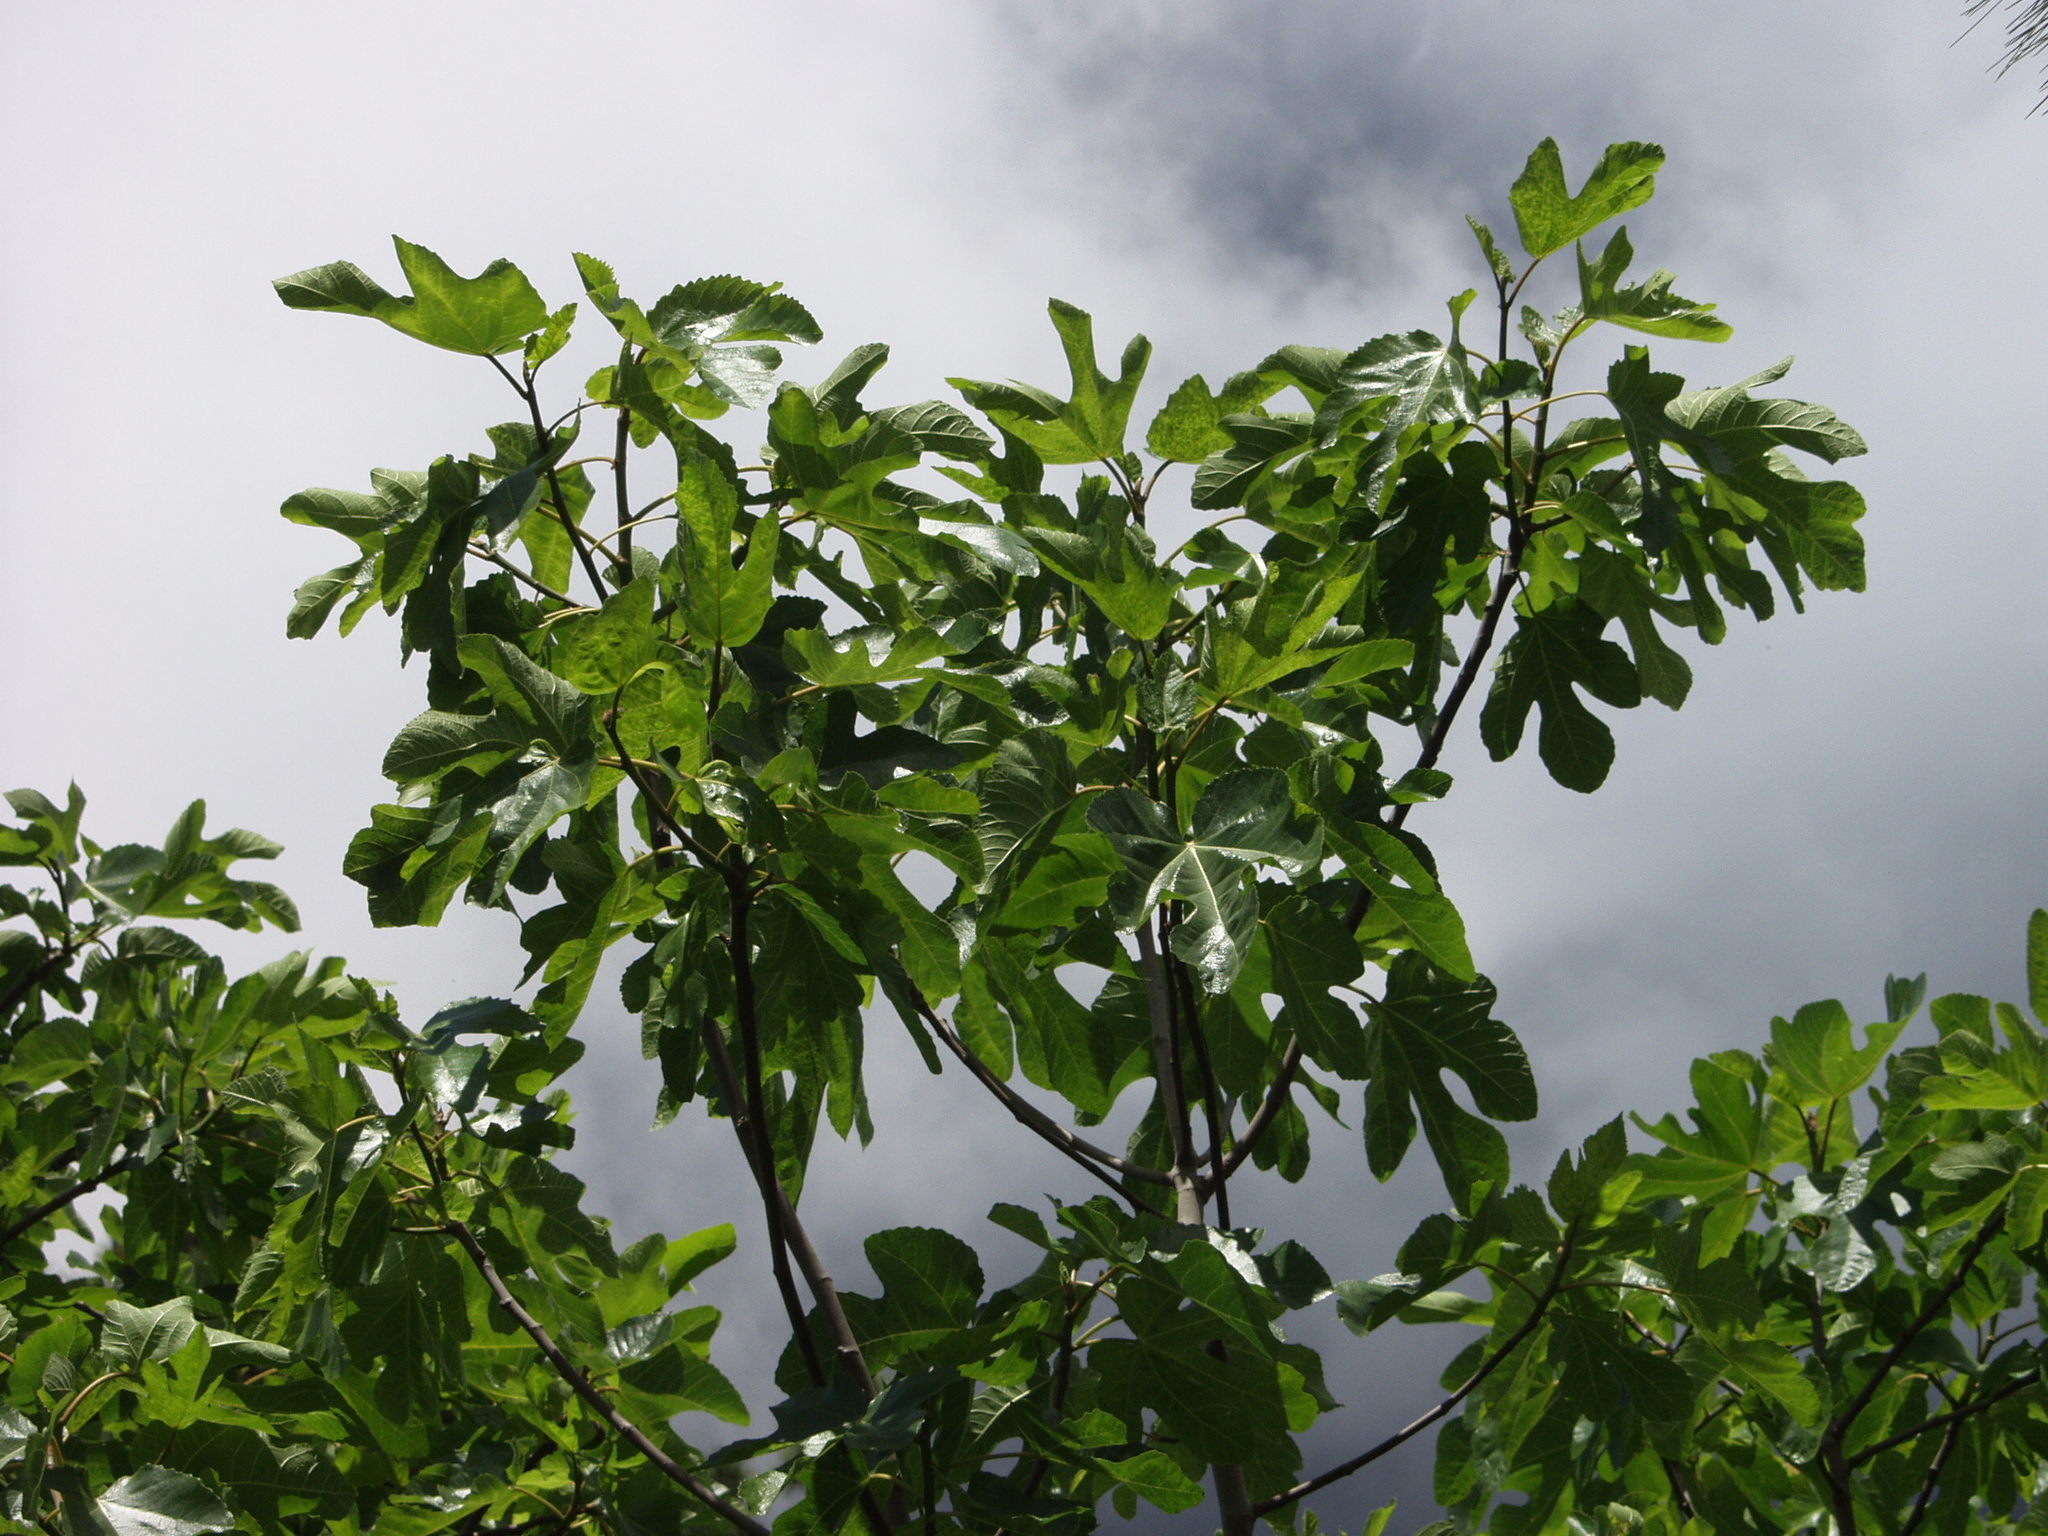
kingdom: Plantae
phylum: Tracheophyta
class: Magnoliopsida
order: Rosales
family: Moraceae
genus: Ficus
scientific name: Ficus carica
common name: Fig
